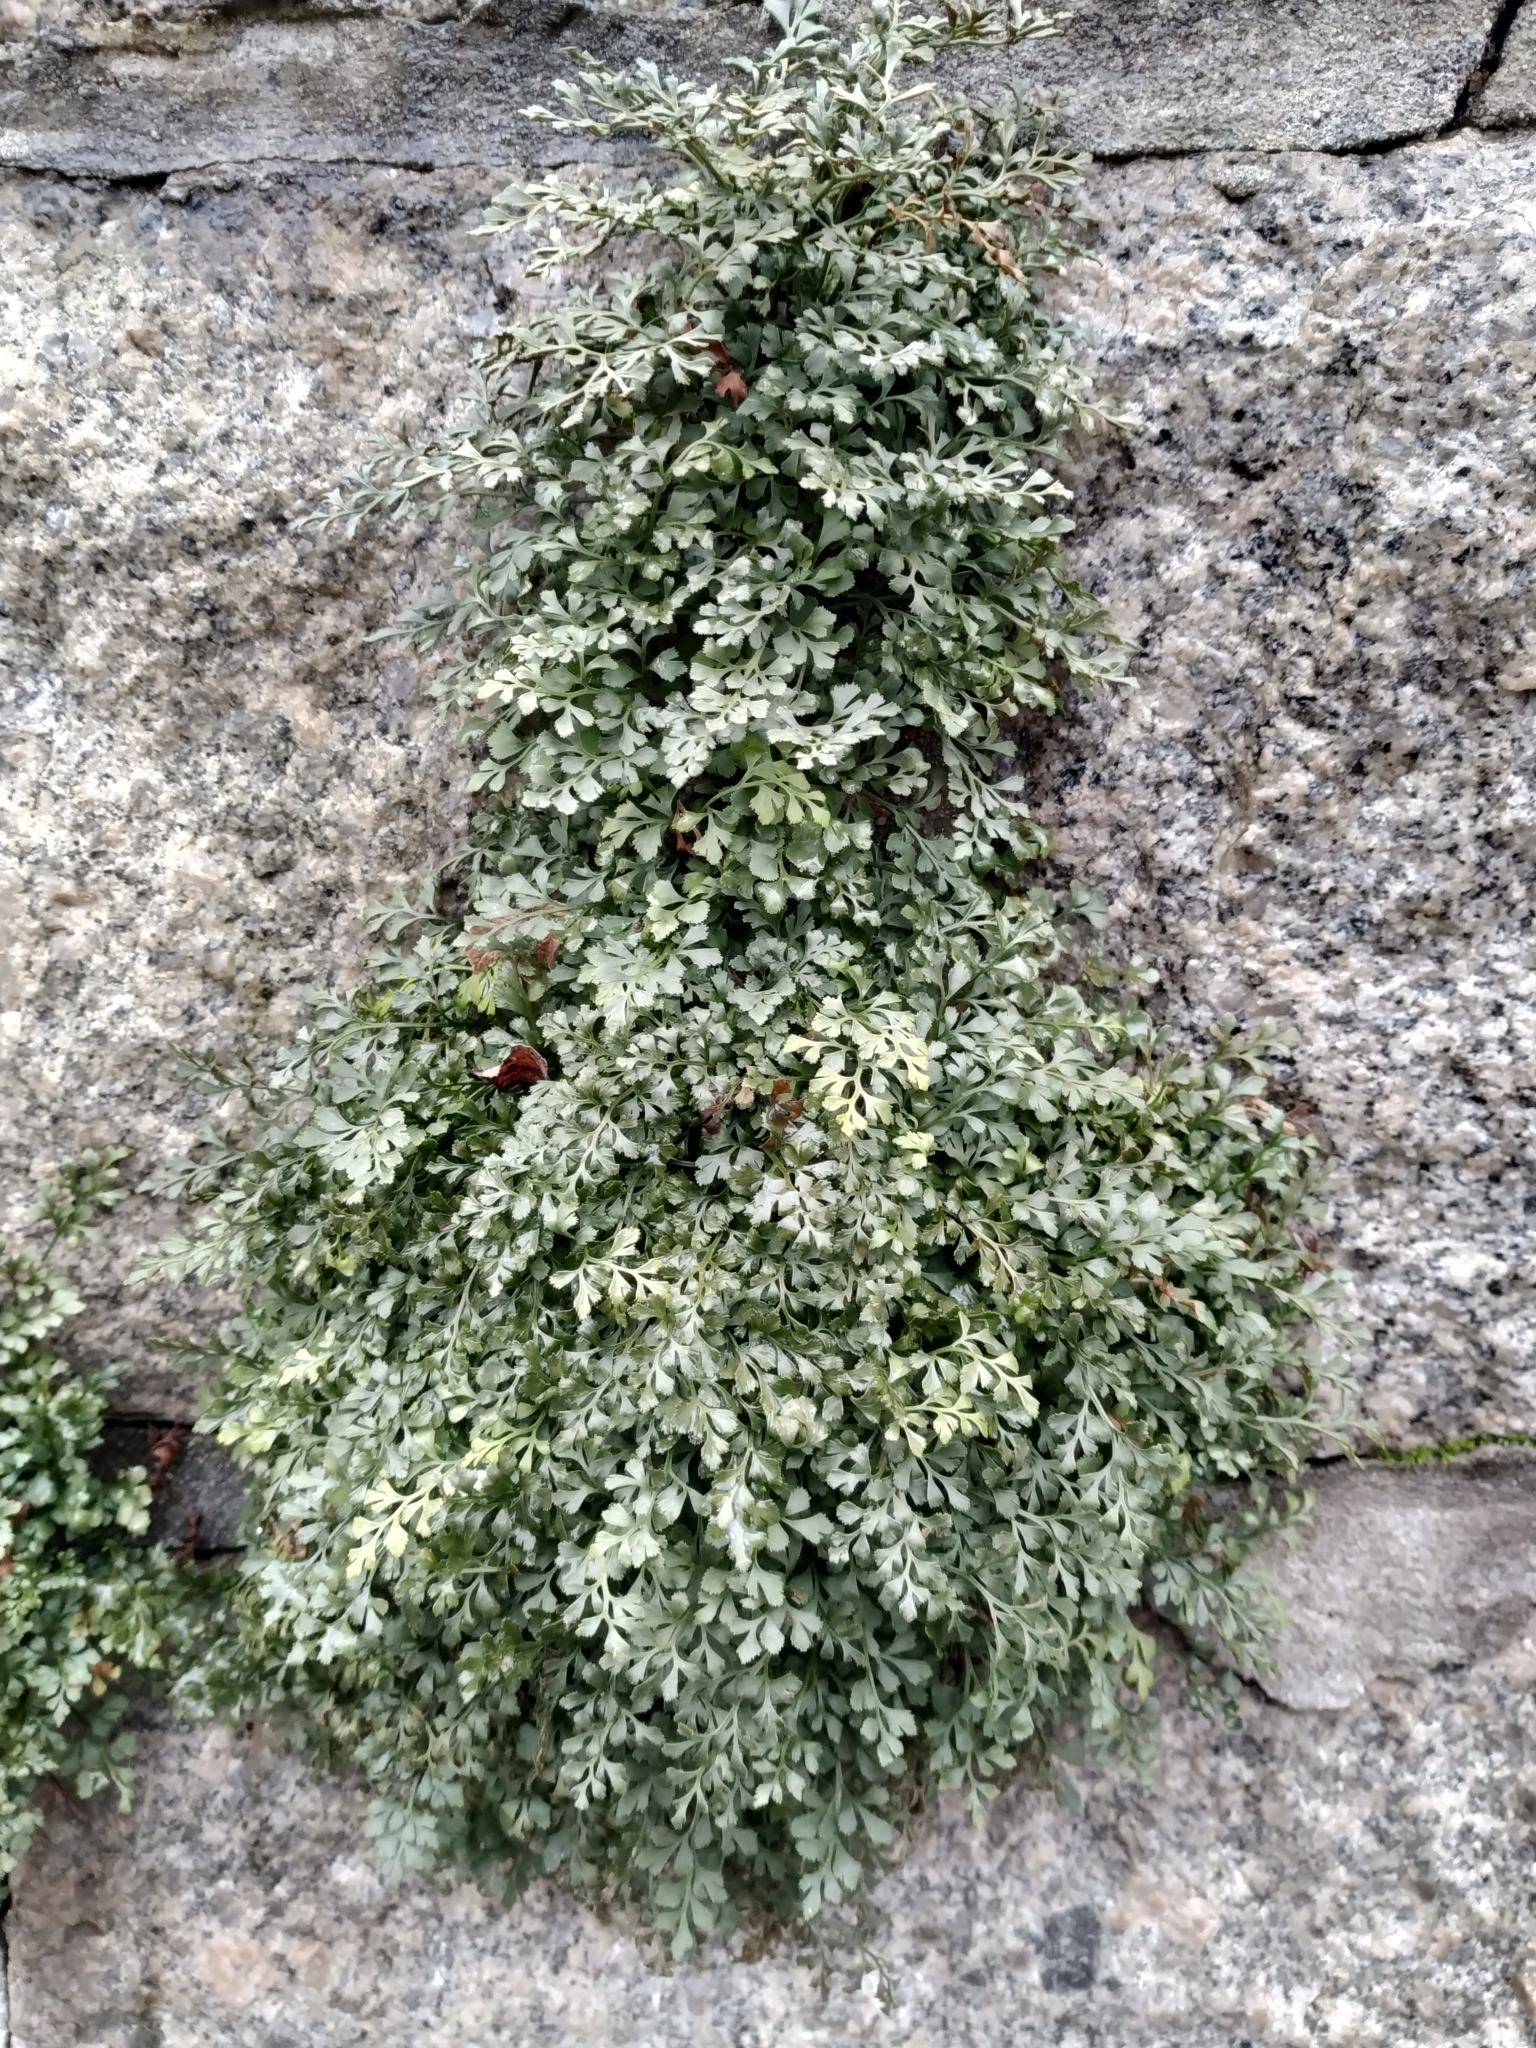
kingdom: Plantae
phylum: Tracheophyta
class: Polypodiopsida
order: Polypodiales
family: Aspleniaceae
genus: Asplenium
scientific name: Asplenium ruta-muraria
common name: Wall-rue
